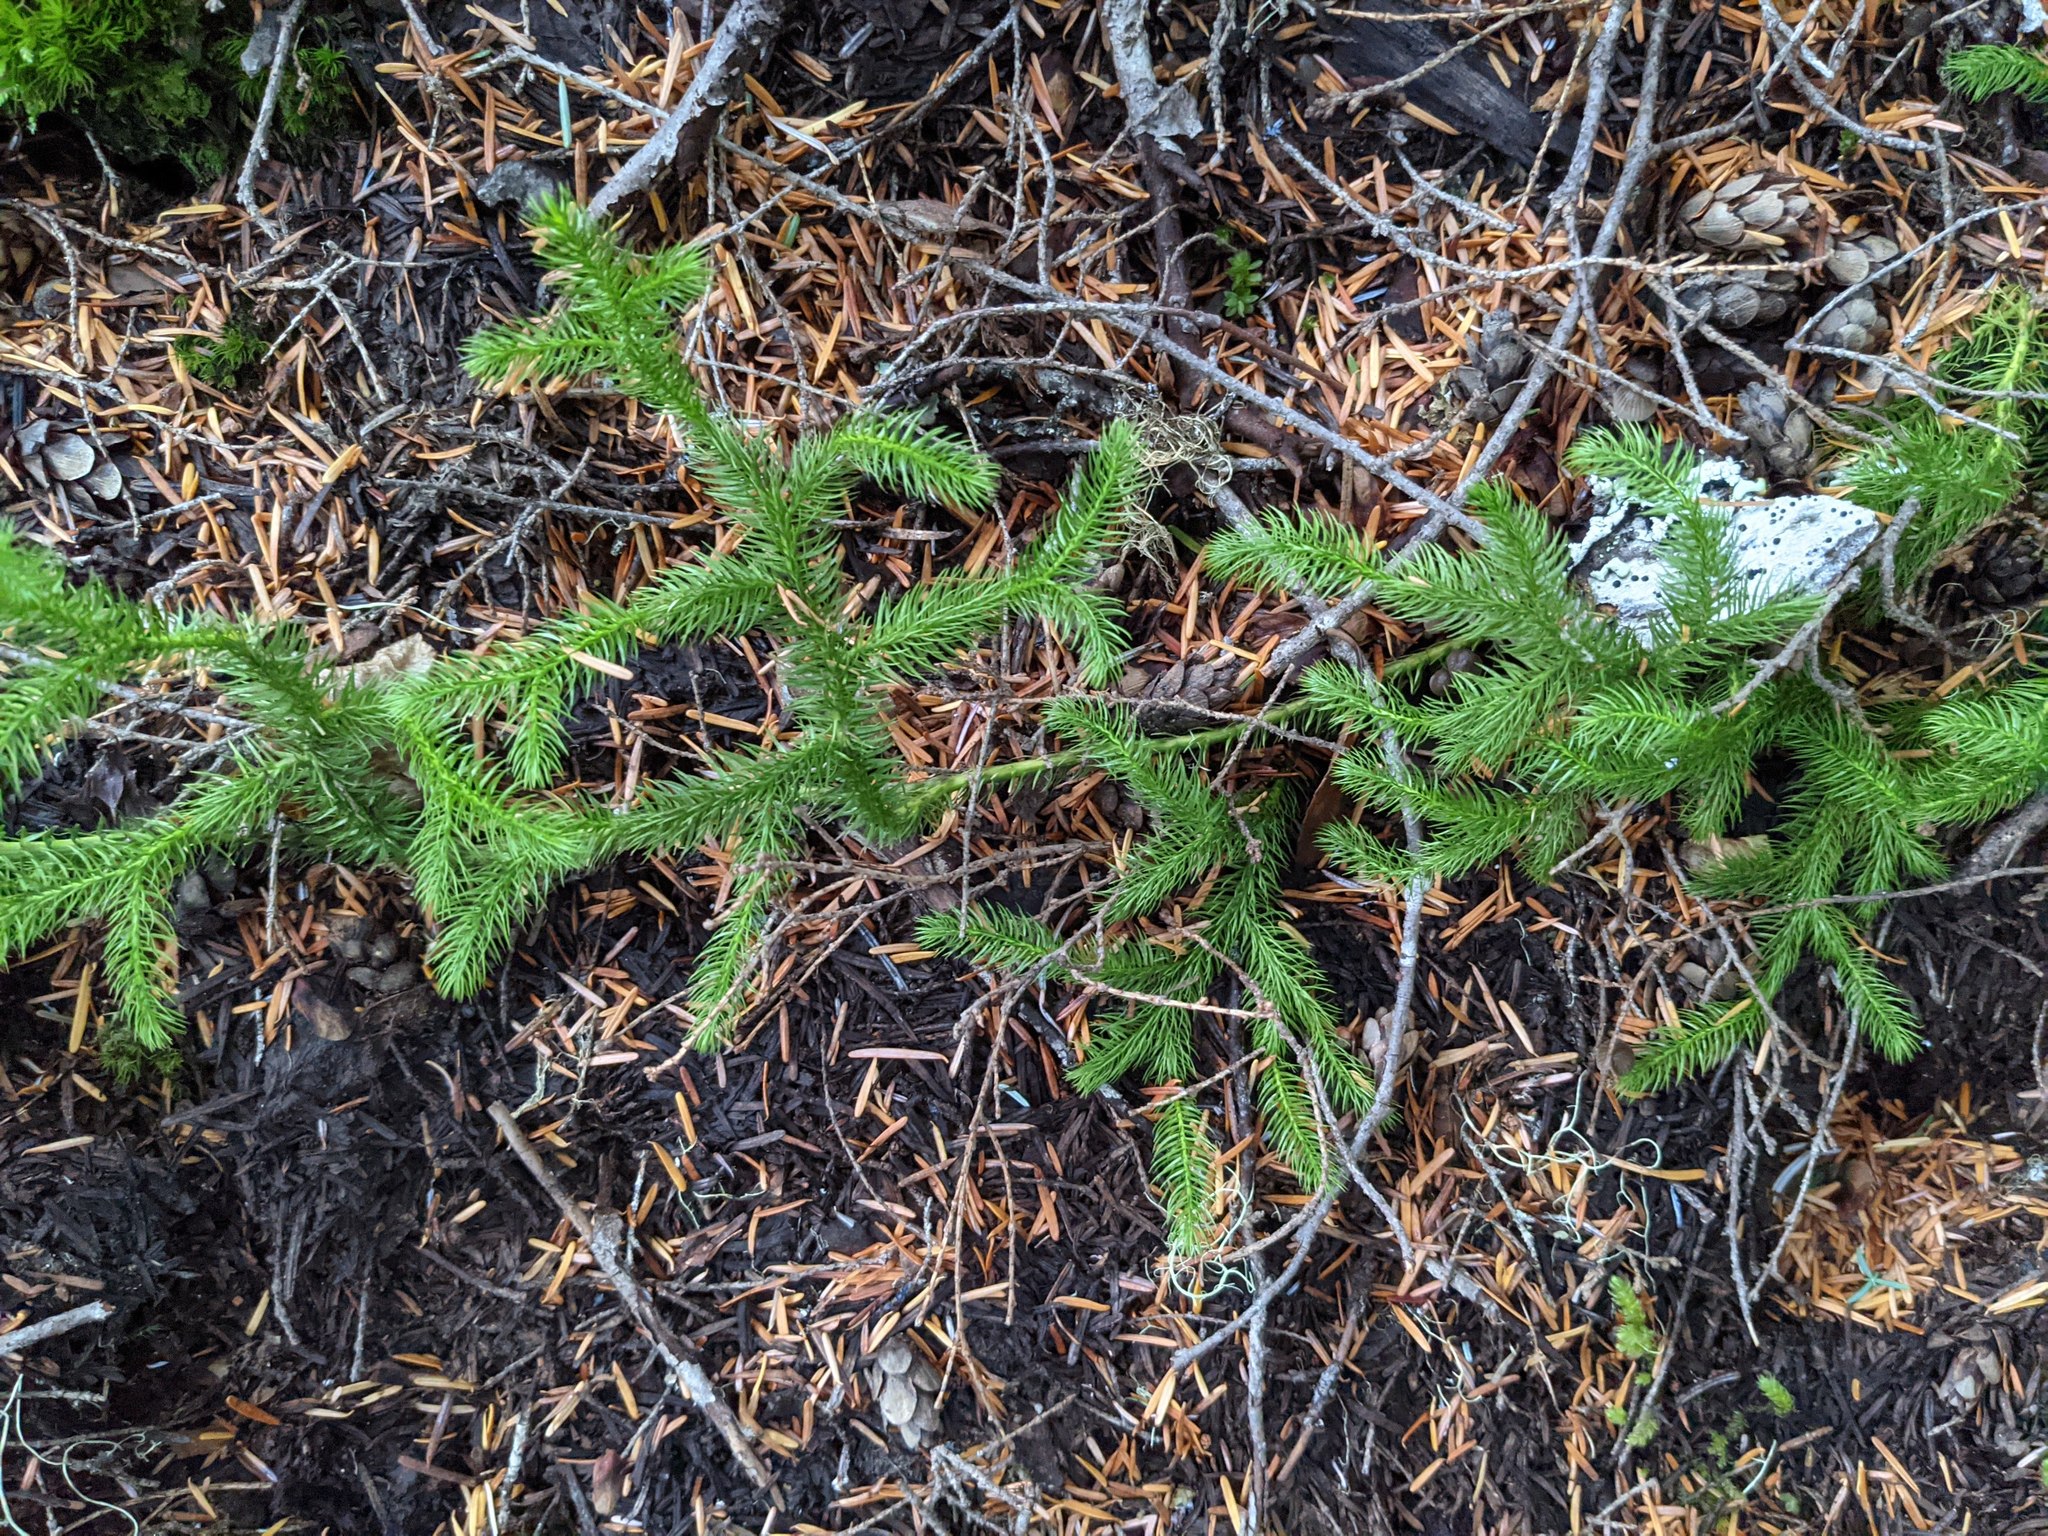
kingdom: Plantae
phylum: Tracheophyta
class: Lycopodiopsida
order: Lycopodiales
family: Lycopodiaceae
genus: Lycopodium
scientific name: Lycopodium clavatum
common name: Stag's-horn clubmoss
